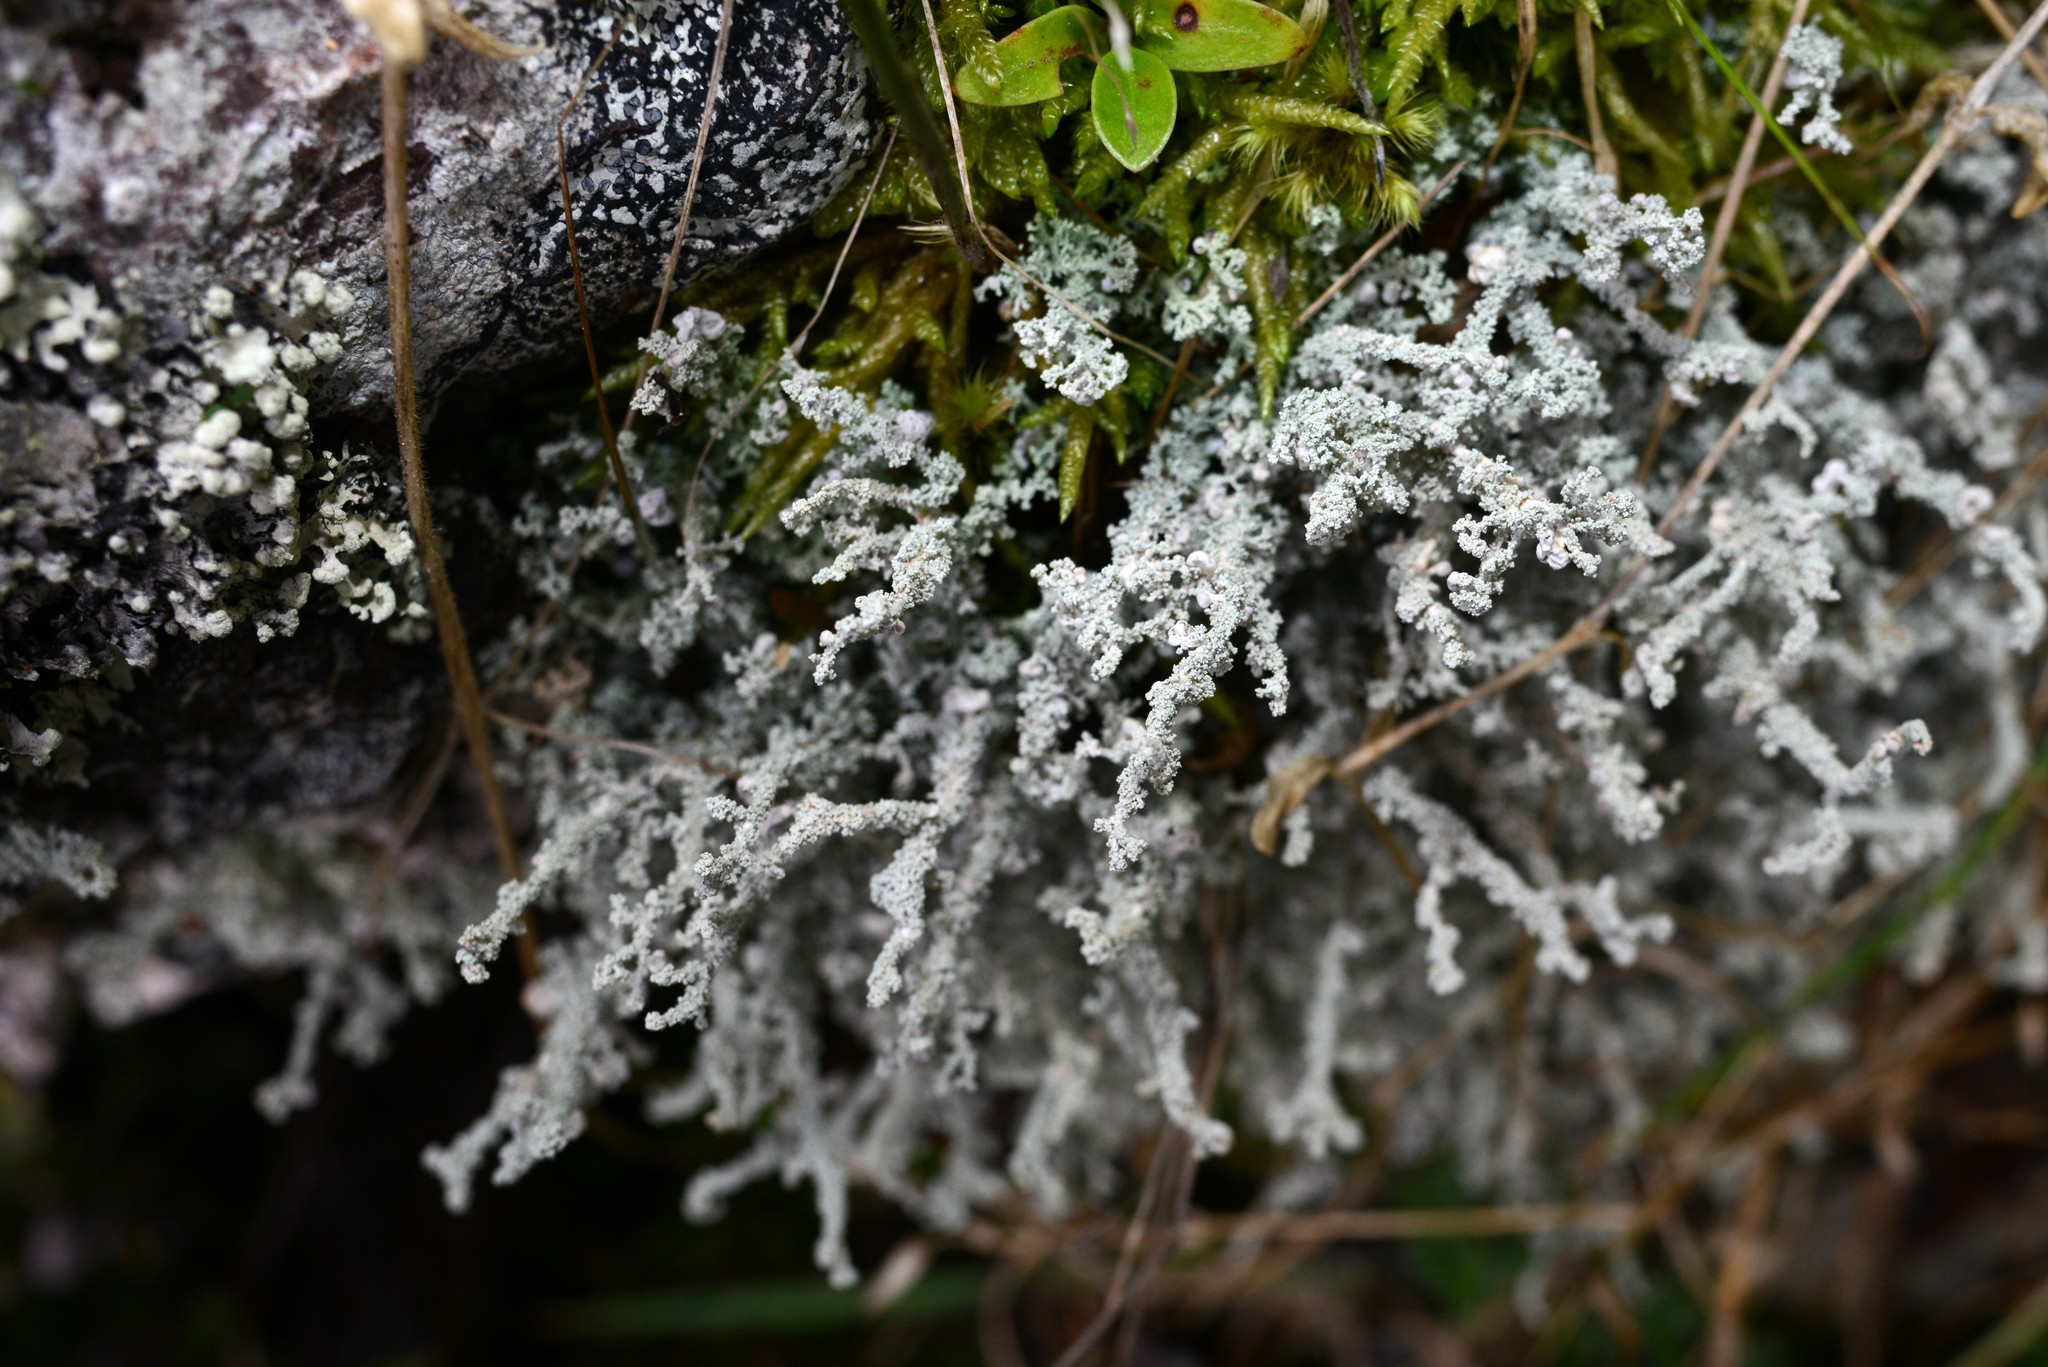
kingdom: Fungi
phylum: Ascomycota
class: Lecanoromycetes
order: Lecanorales
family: Stereocaulaceae
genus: Stereocaulon
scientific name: Stereocaulon corticatulum
